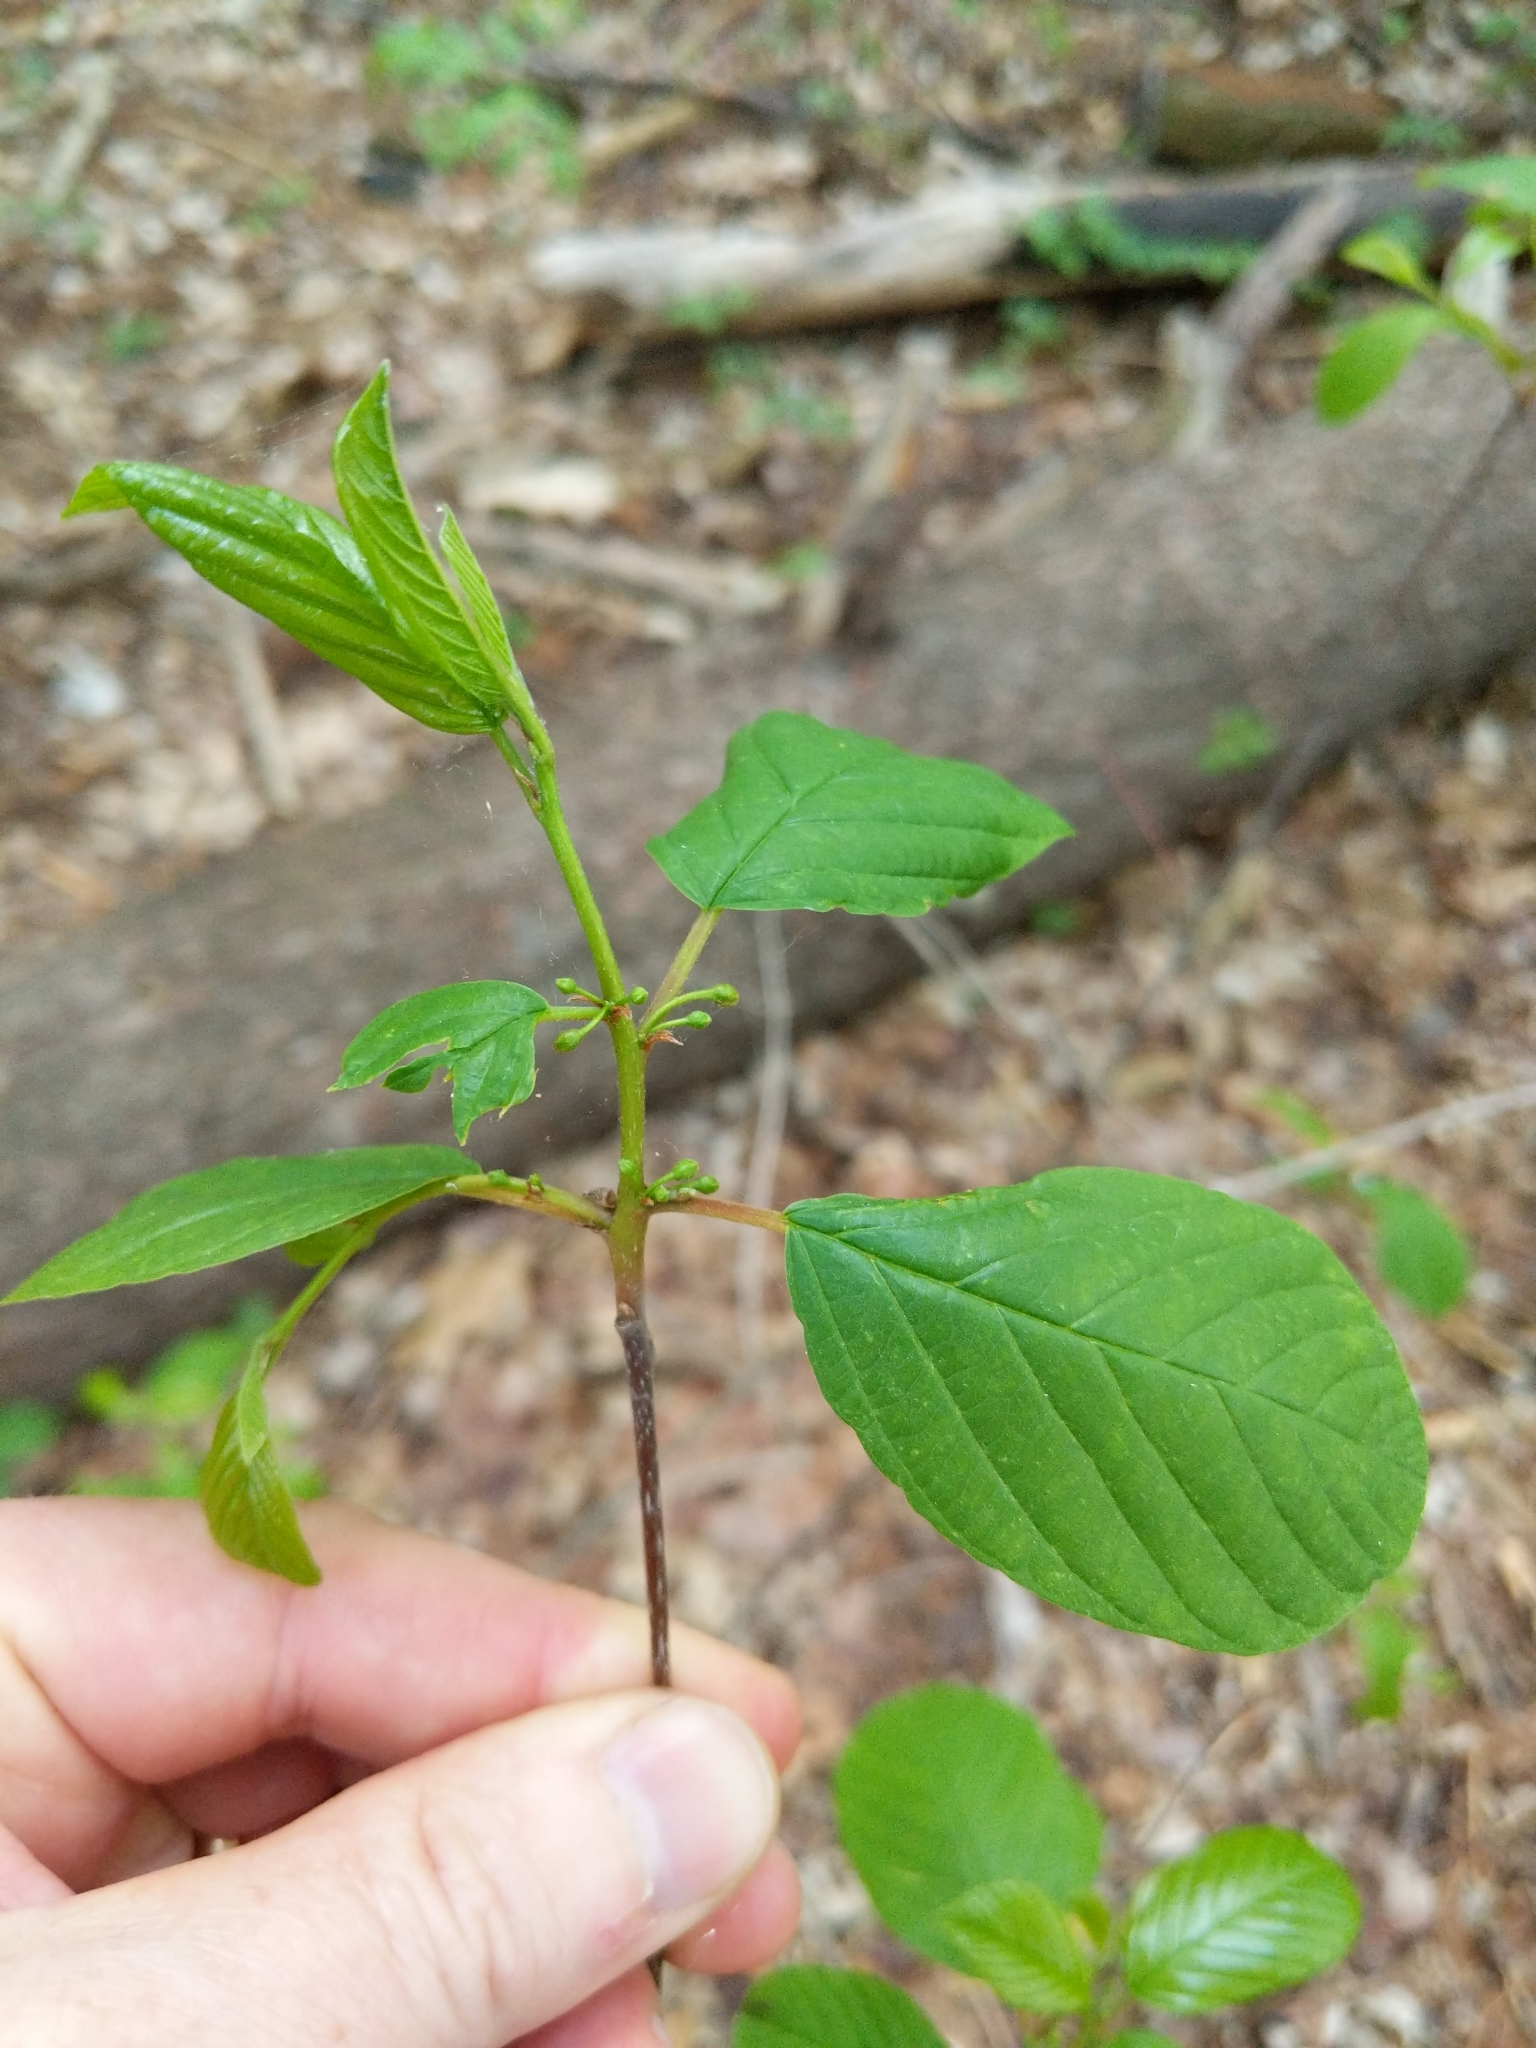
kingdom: Plantae
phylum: Tracheophyta
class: Magnoliopsida
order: Rosales
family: Rhamnaceae
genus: Frangula
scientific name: Frangula alnus
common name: Alder buckthorn
